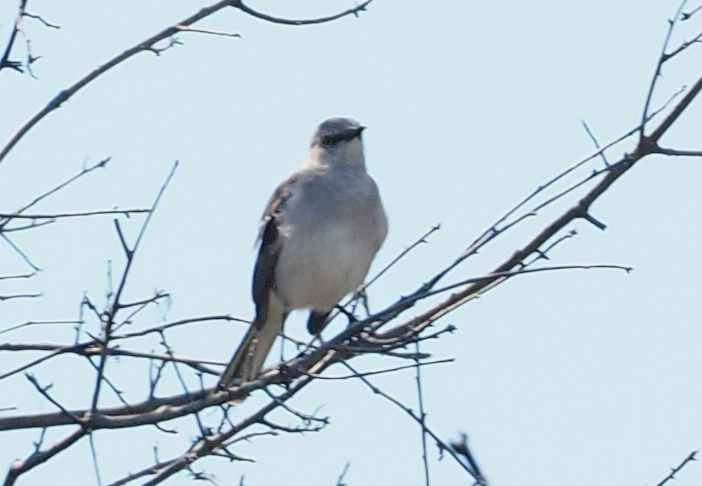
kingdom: Animalia
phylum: Chordata
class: Aves
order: Passeriformes
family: Mimidae
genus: Mimus
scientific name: Mimus polyglottos
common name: Northern mockingbird
